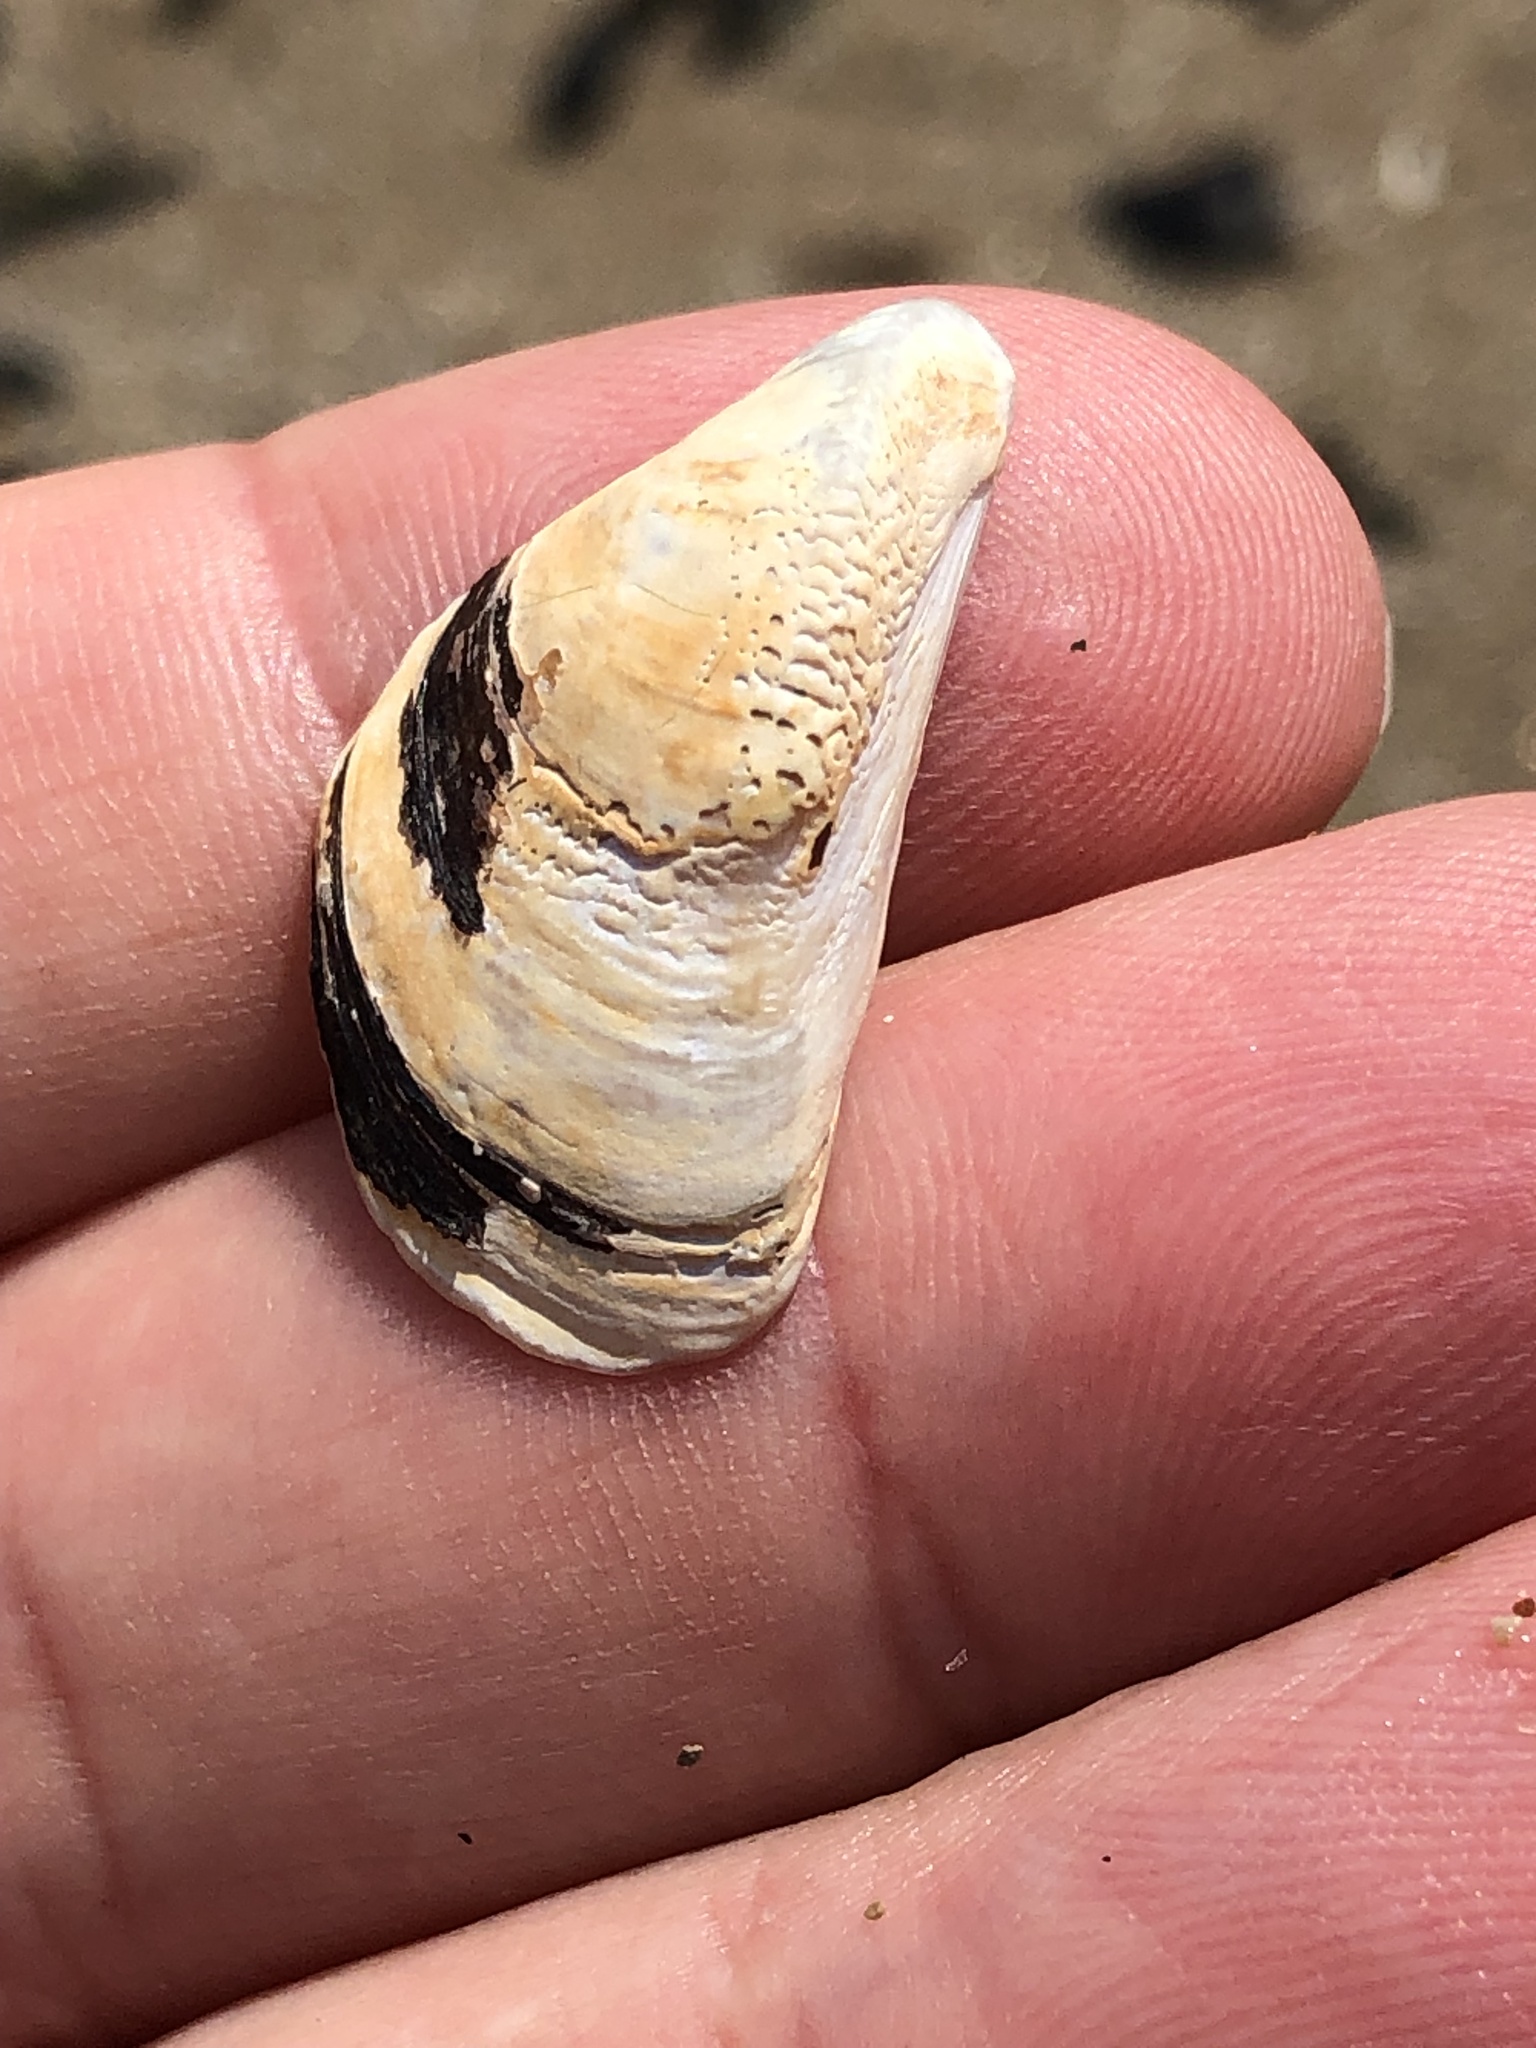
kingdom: Animalia
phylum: Mollusca
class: Bivalvia
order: Myida
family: Dreissenidae
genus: Dreissena
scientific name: Dreissena polymorpha
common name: Zebra mussel
